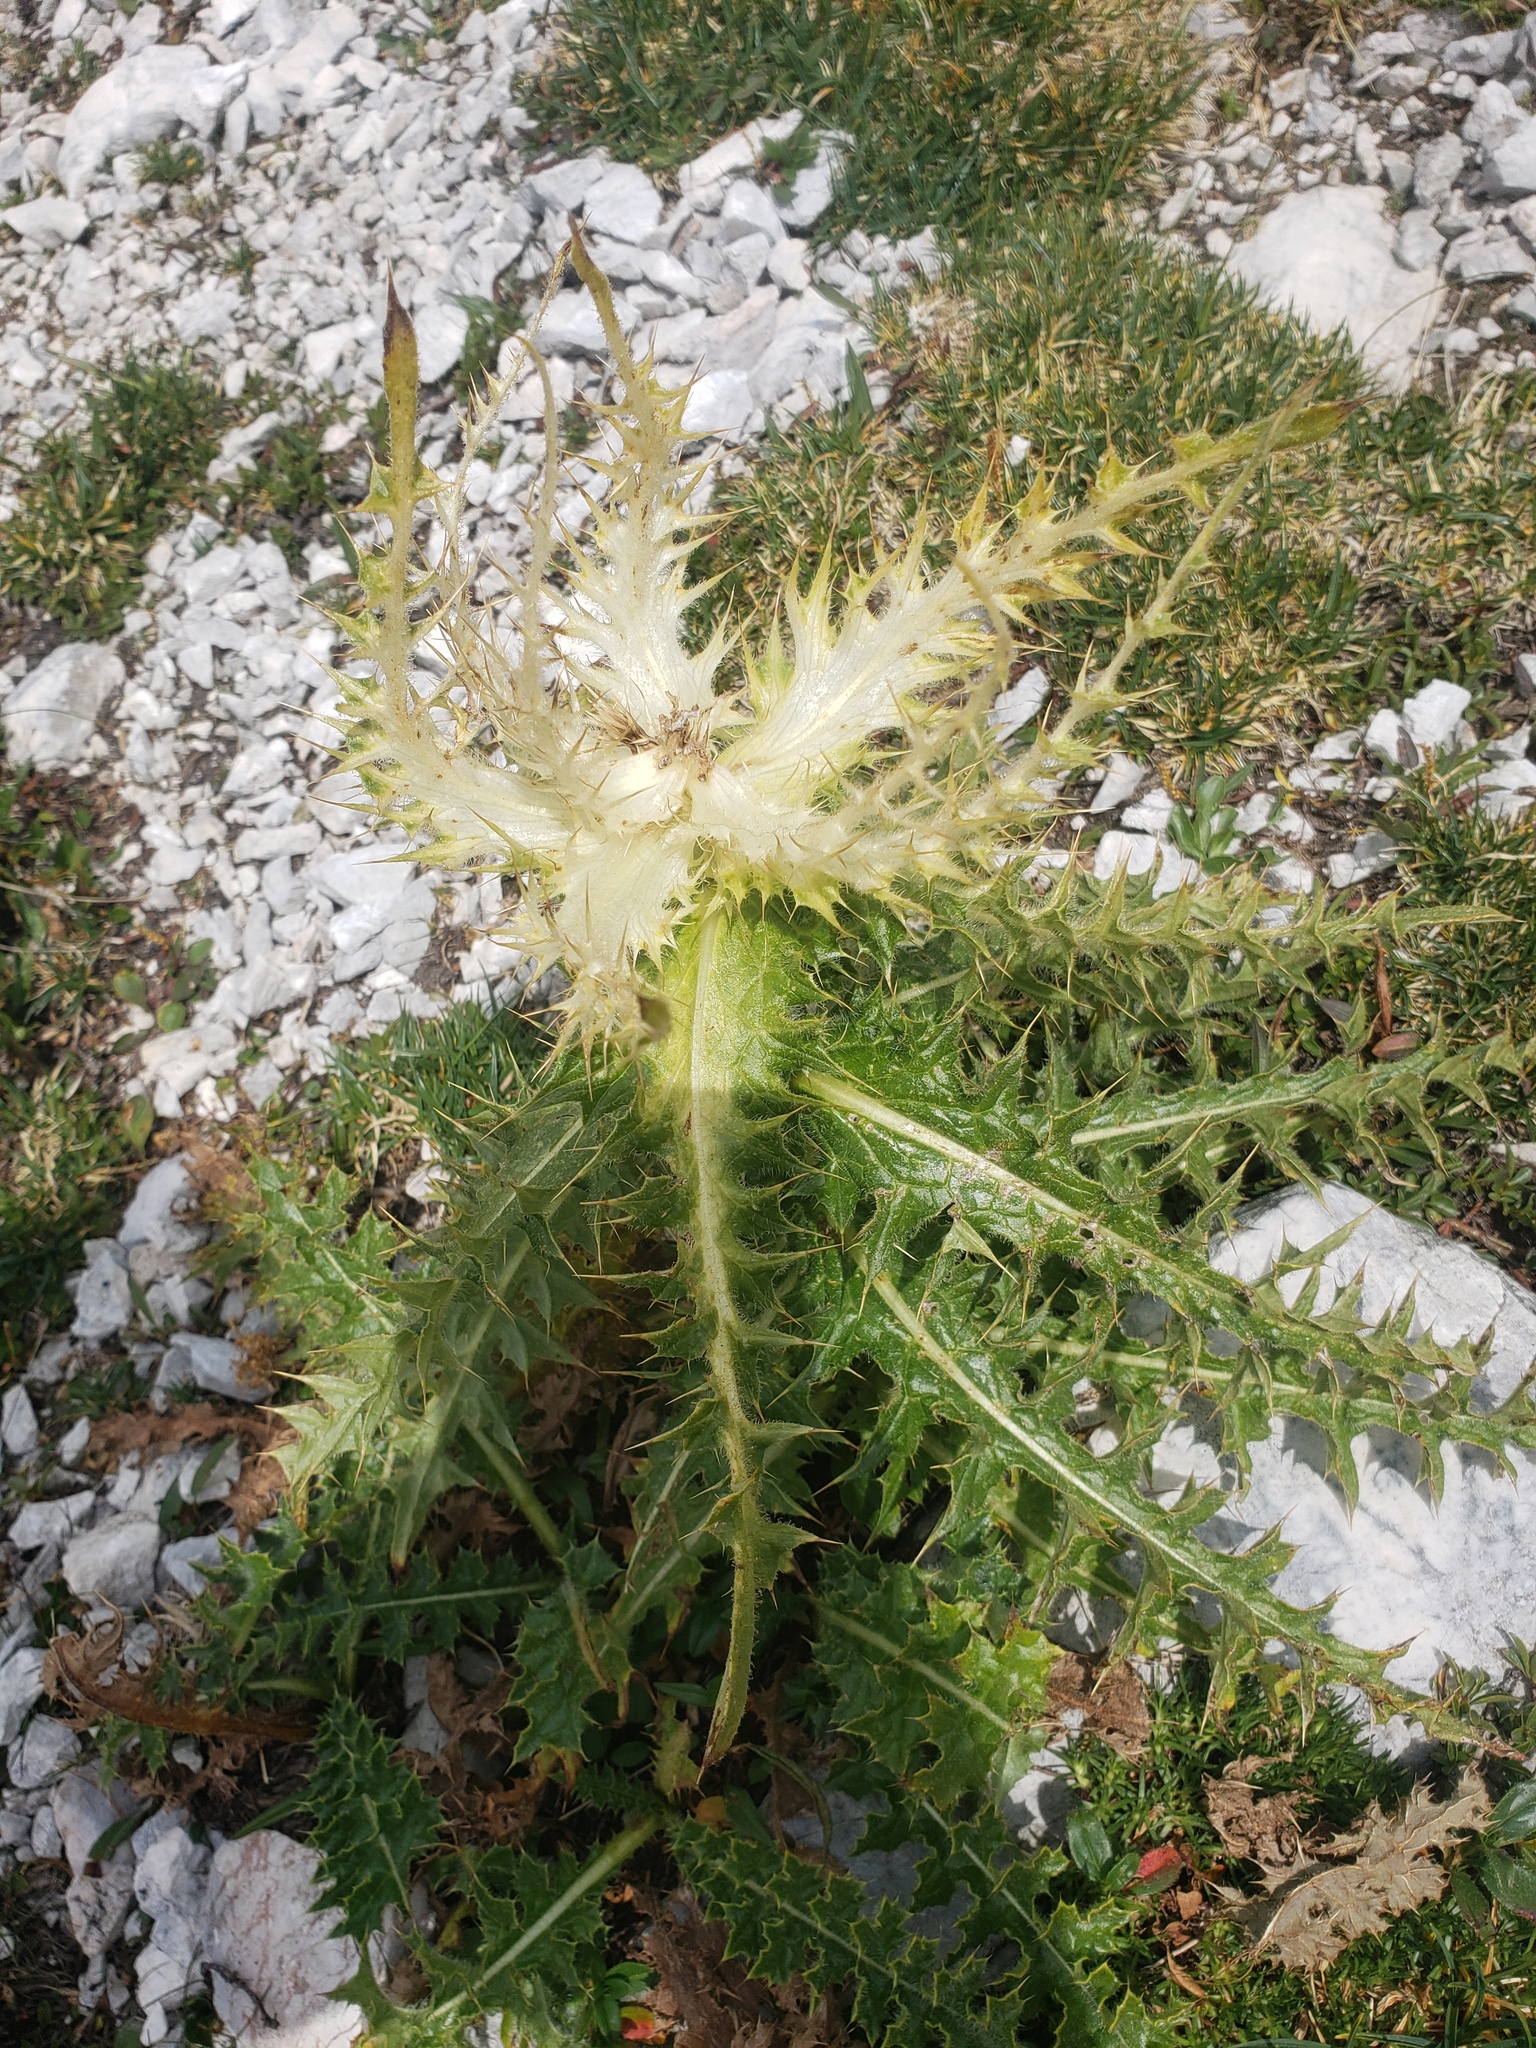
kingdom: Plantae
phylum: Tracheophyta
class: Magnoliopsida
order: Asterales
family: Asteraceae
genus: Cirsium
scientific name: Cirsium spinosissimum
